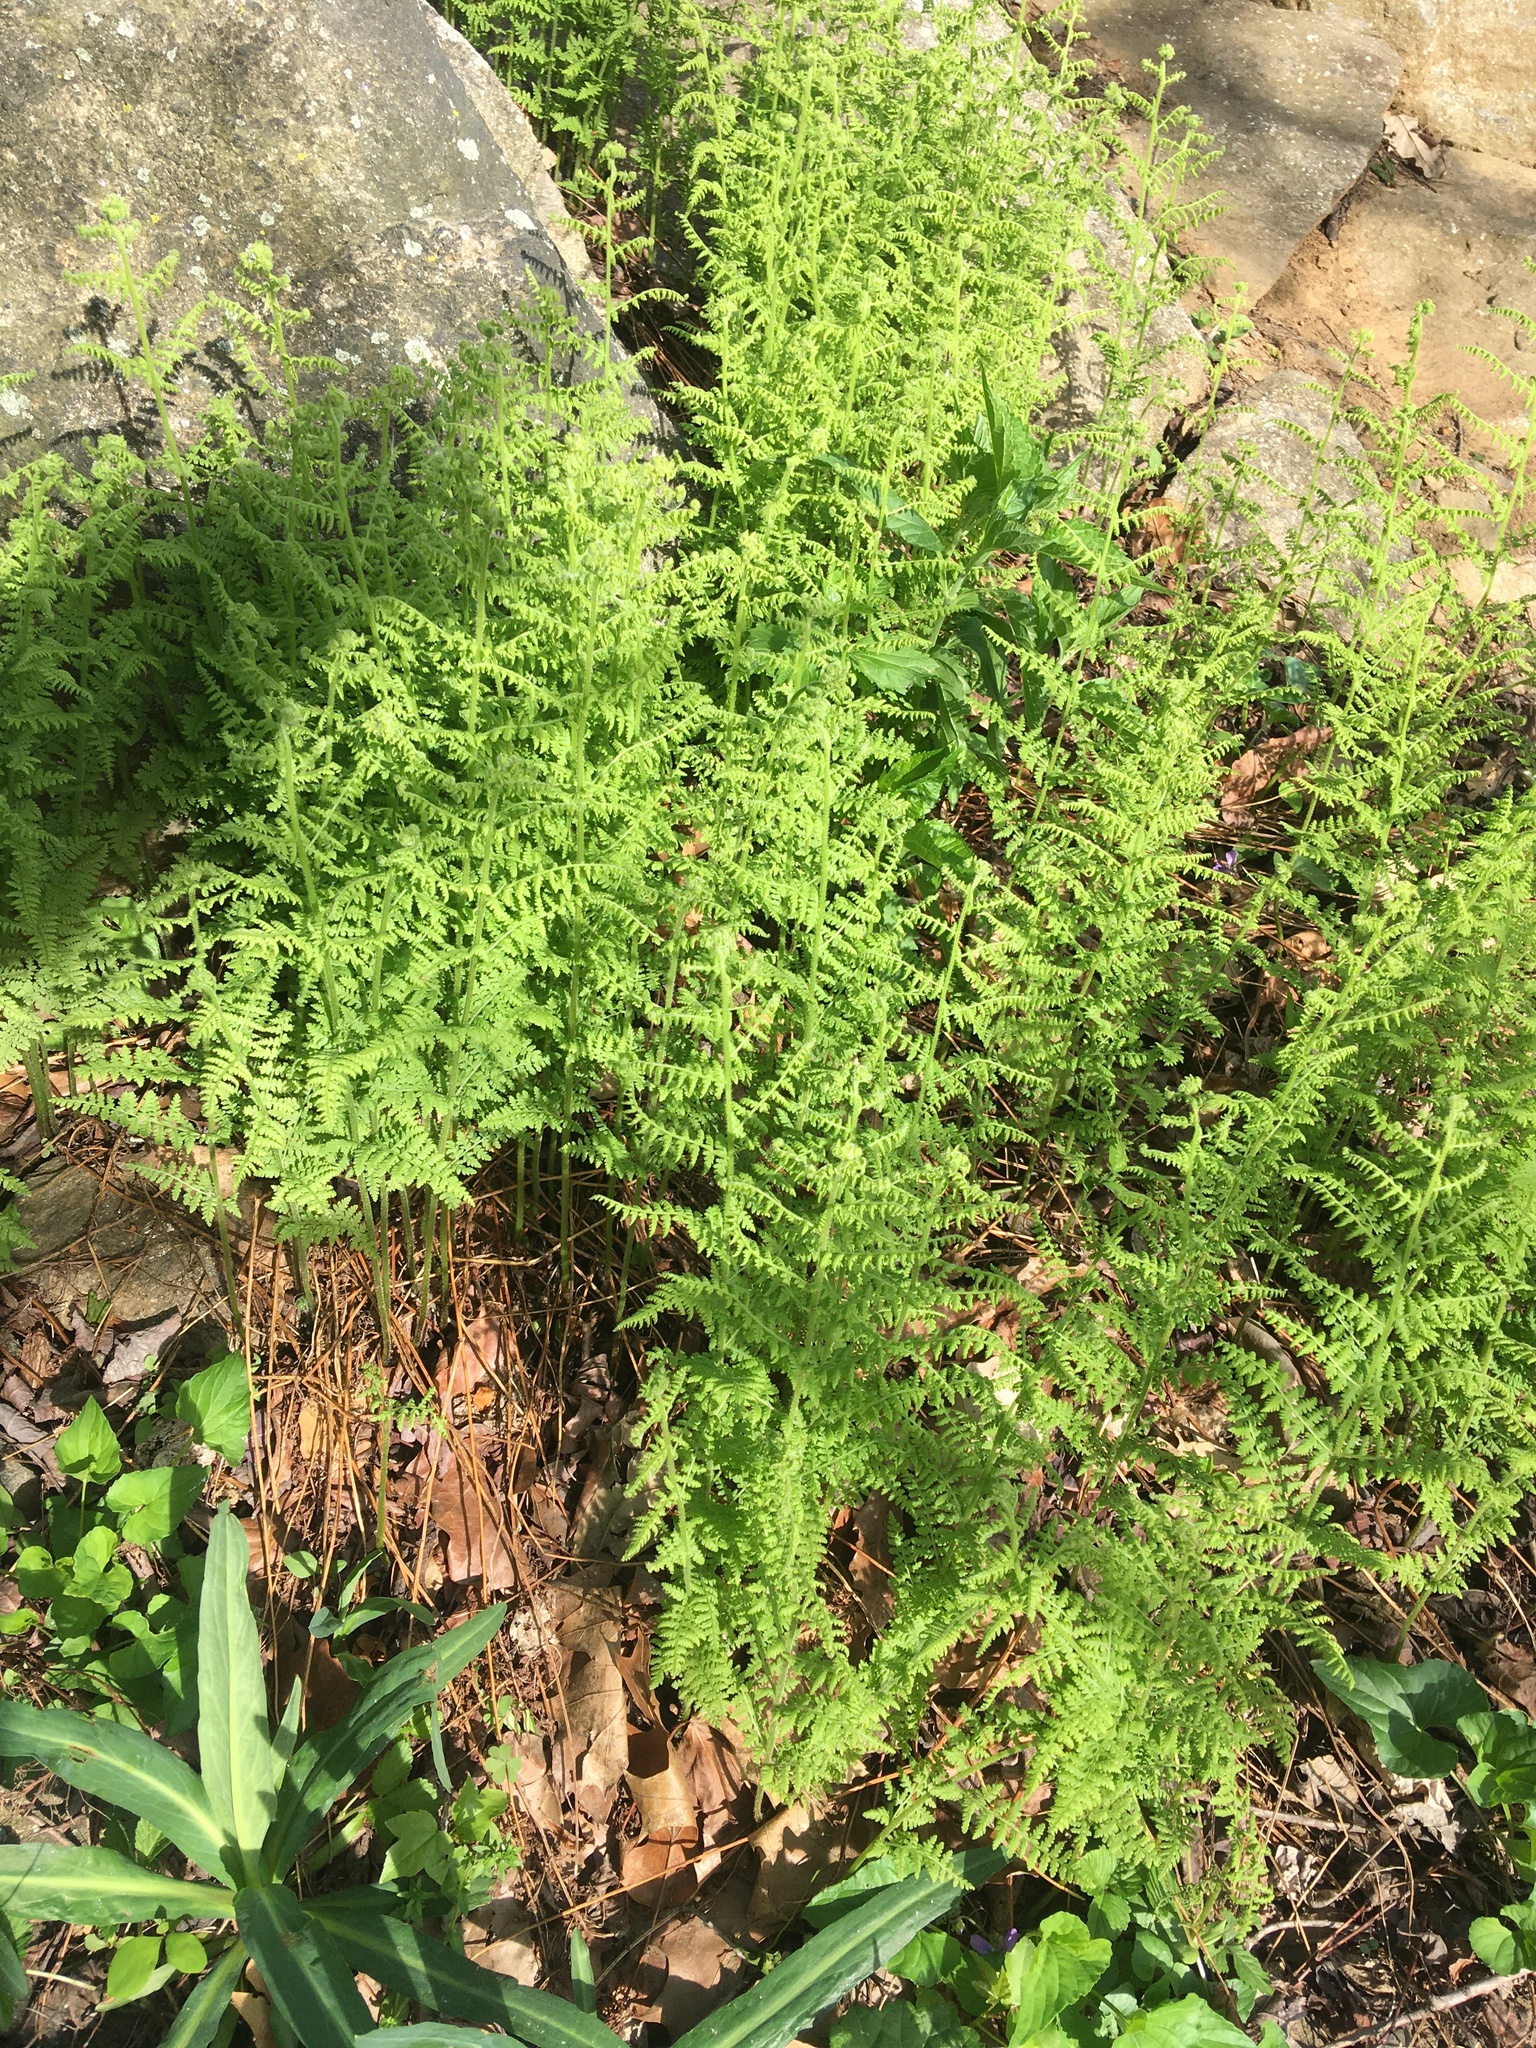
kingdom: Plantae
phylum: Tracheophyta
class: Polypodiopsida
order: Polypodiales
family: Dennstaedtiaceae
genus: Sitobolium
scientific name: Sitobolium punctilobum
